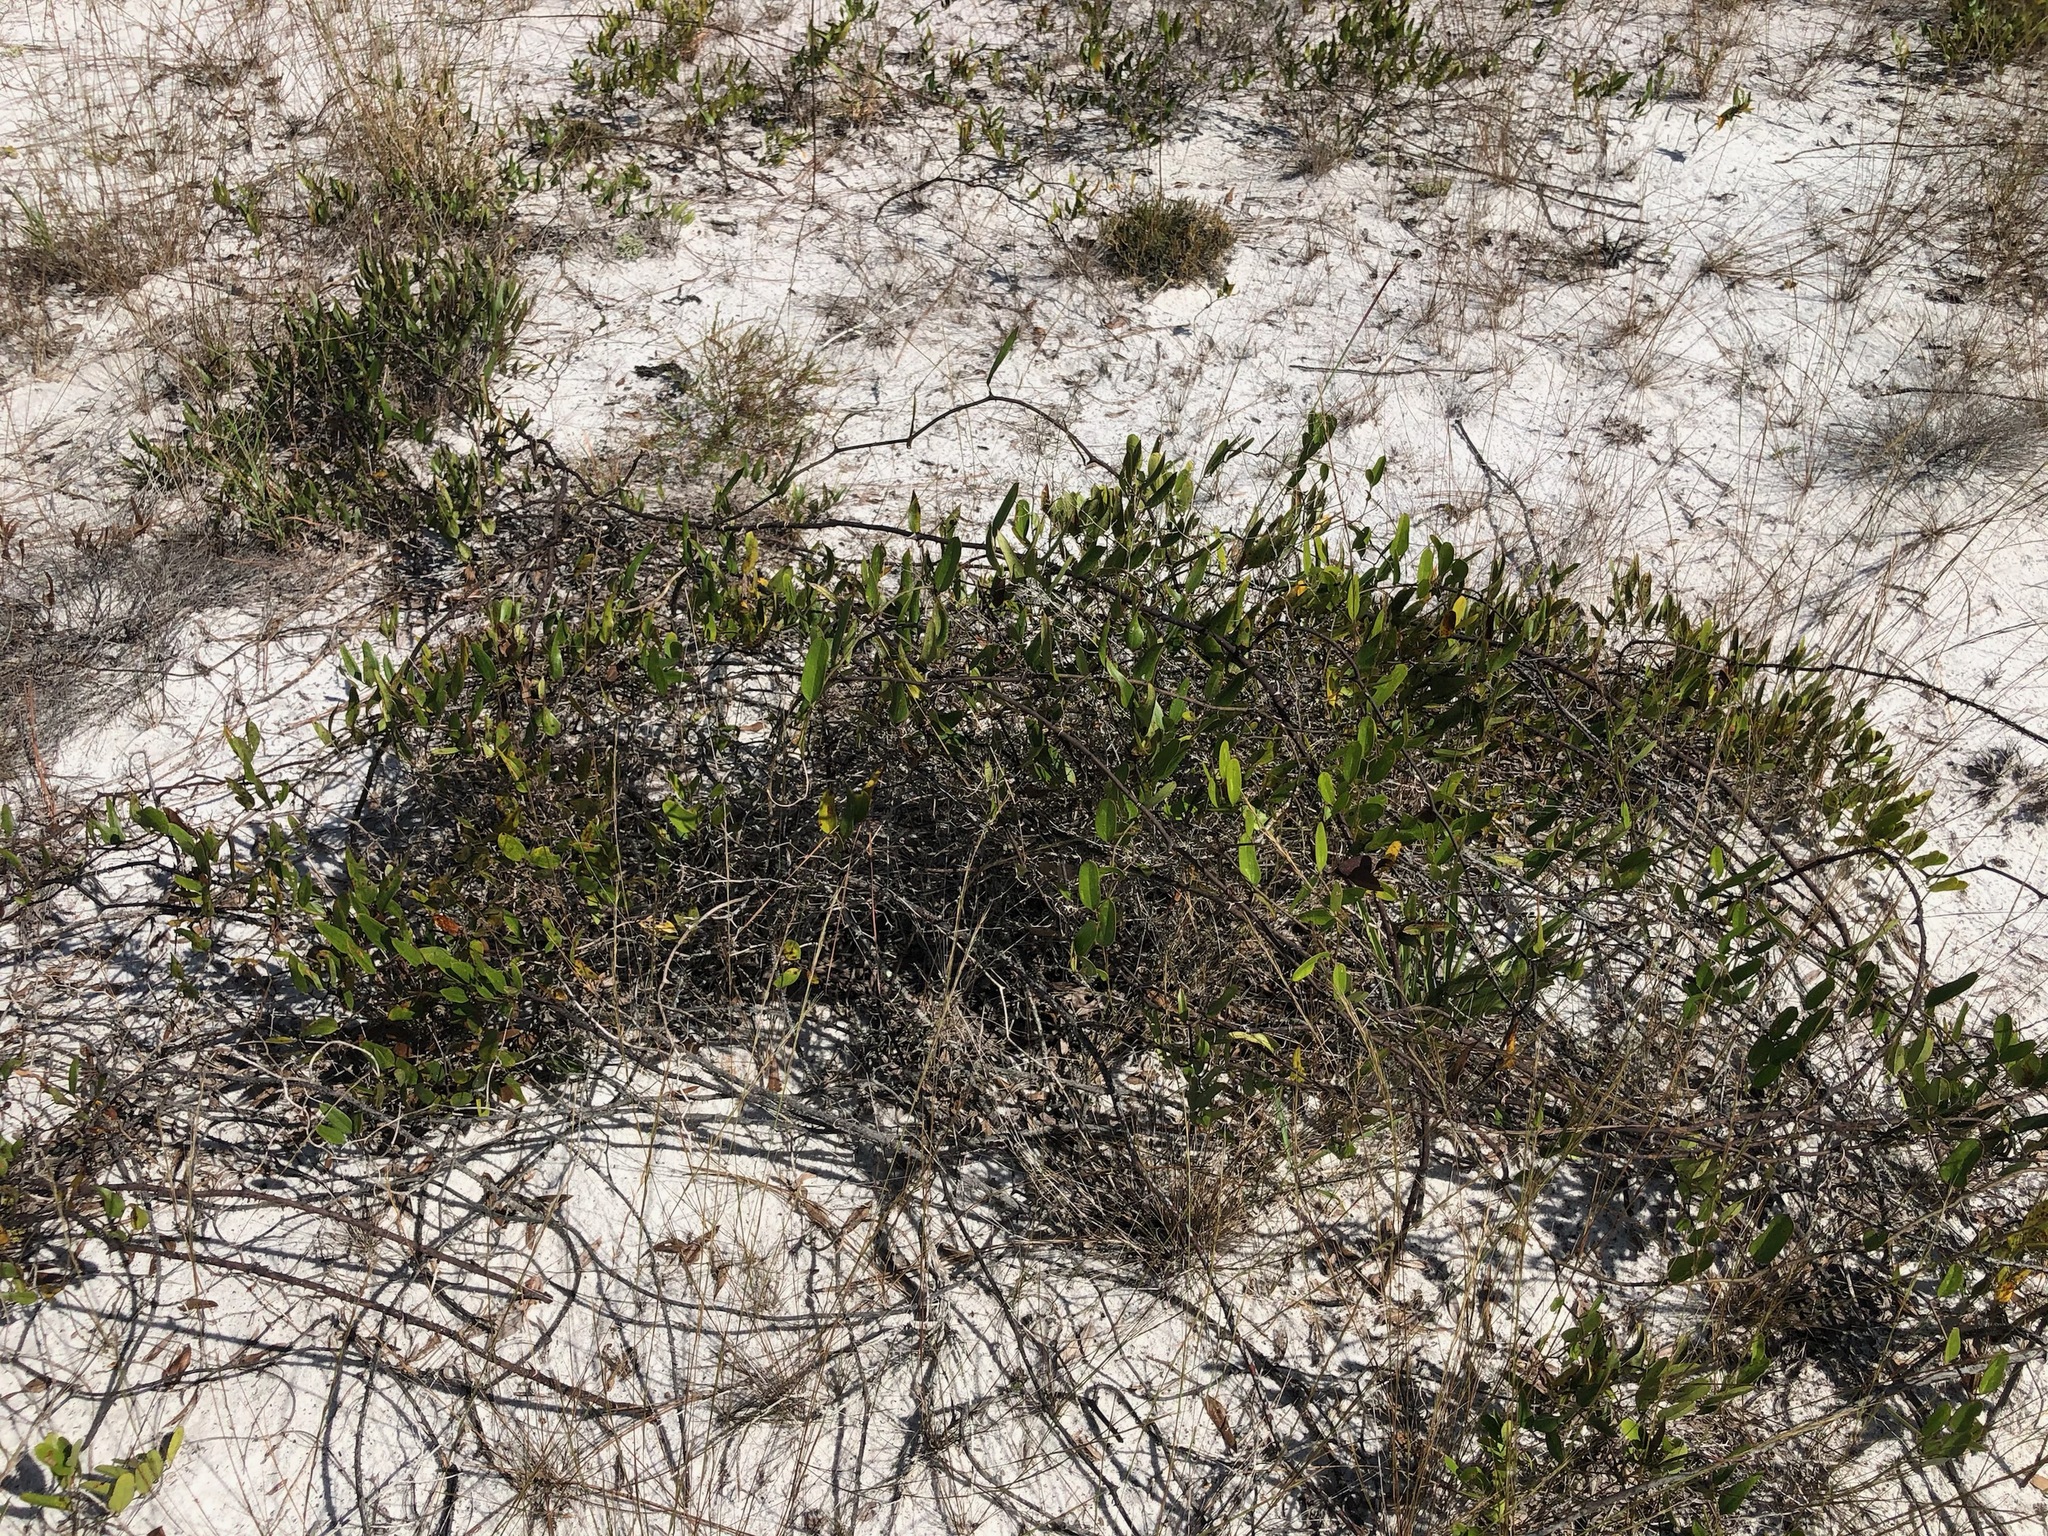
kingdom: Plantae
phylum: Tracheophyta
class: Liliopsida
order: Liliales
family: Smilacaceae
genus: Smilax
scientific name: Smilax auriculata
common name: Wild bamboo
